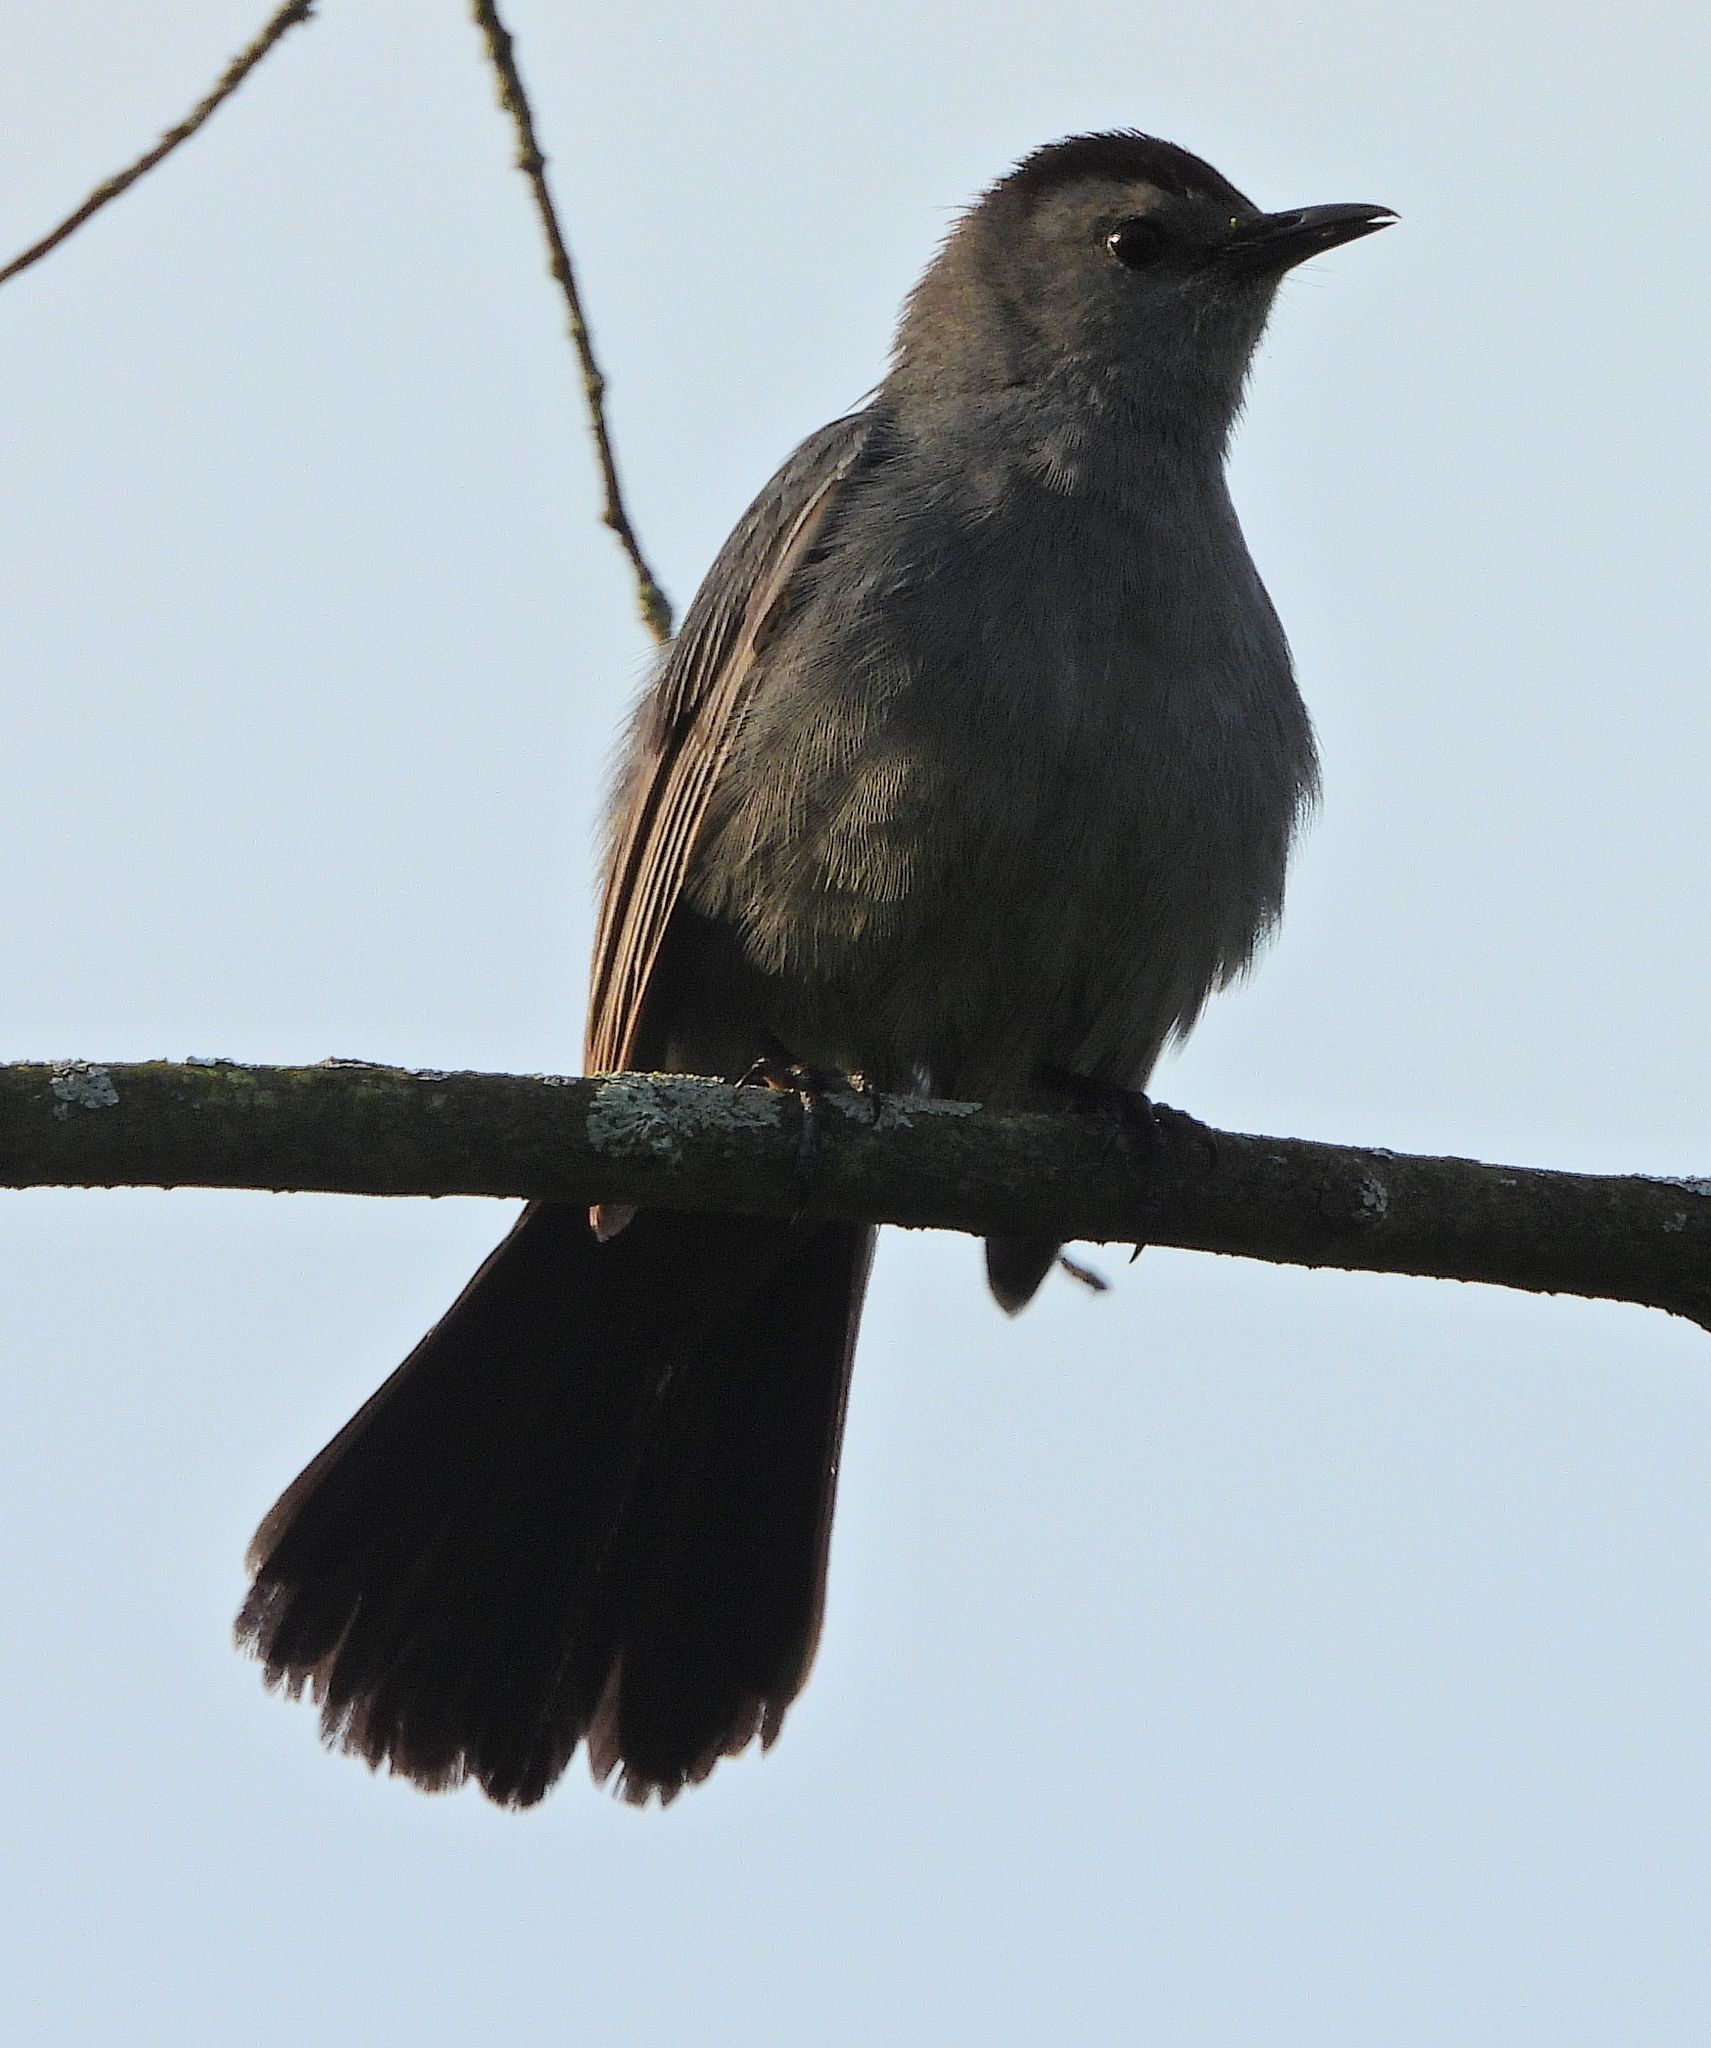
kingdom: Animalia
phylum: Chordata
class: Aves
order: Passeriformes
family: Mimidae
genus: Dumetella
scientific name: Dumetella carolinensis
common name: Gray catbird
